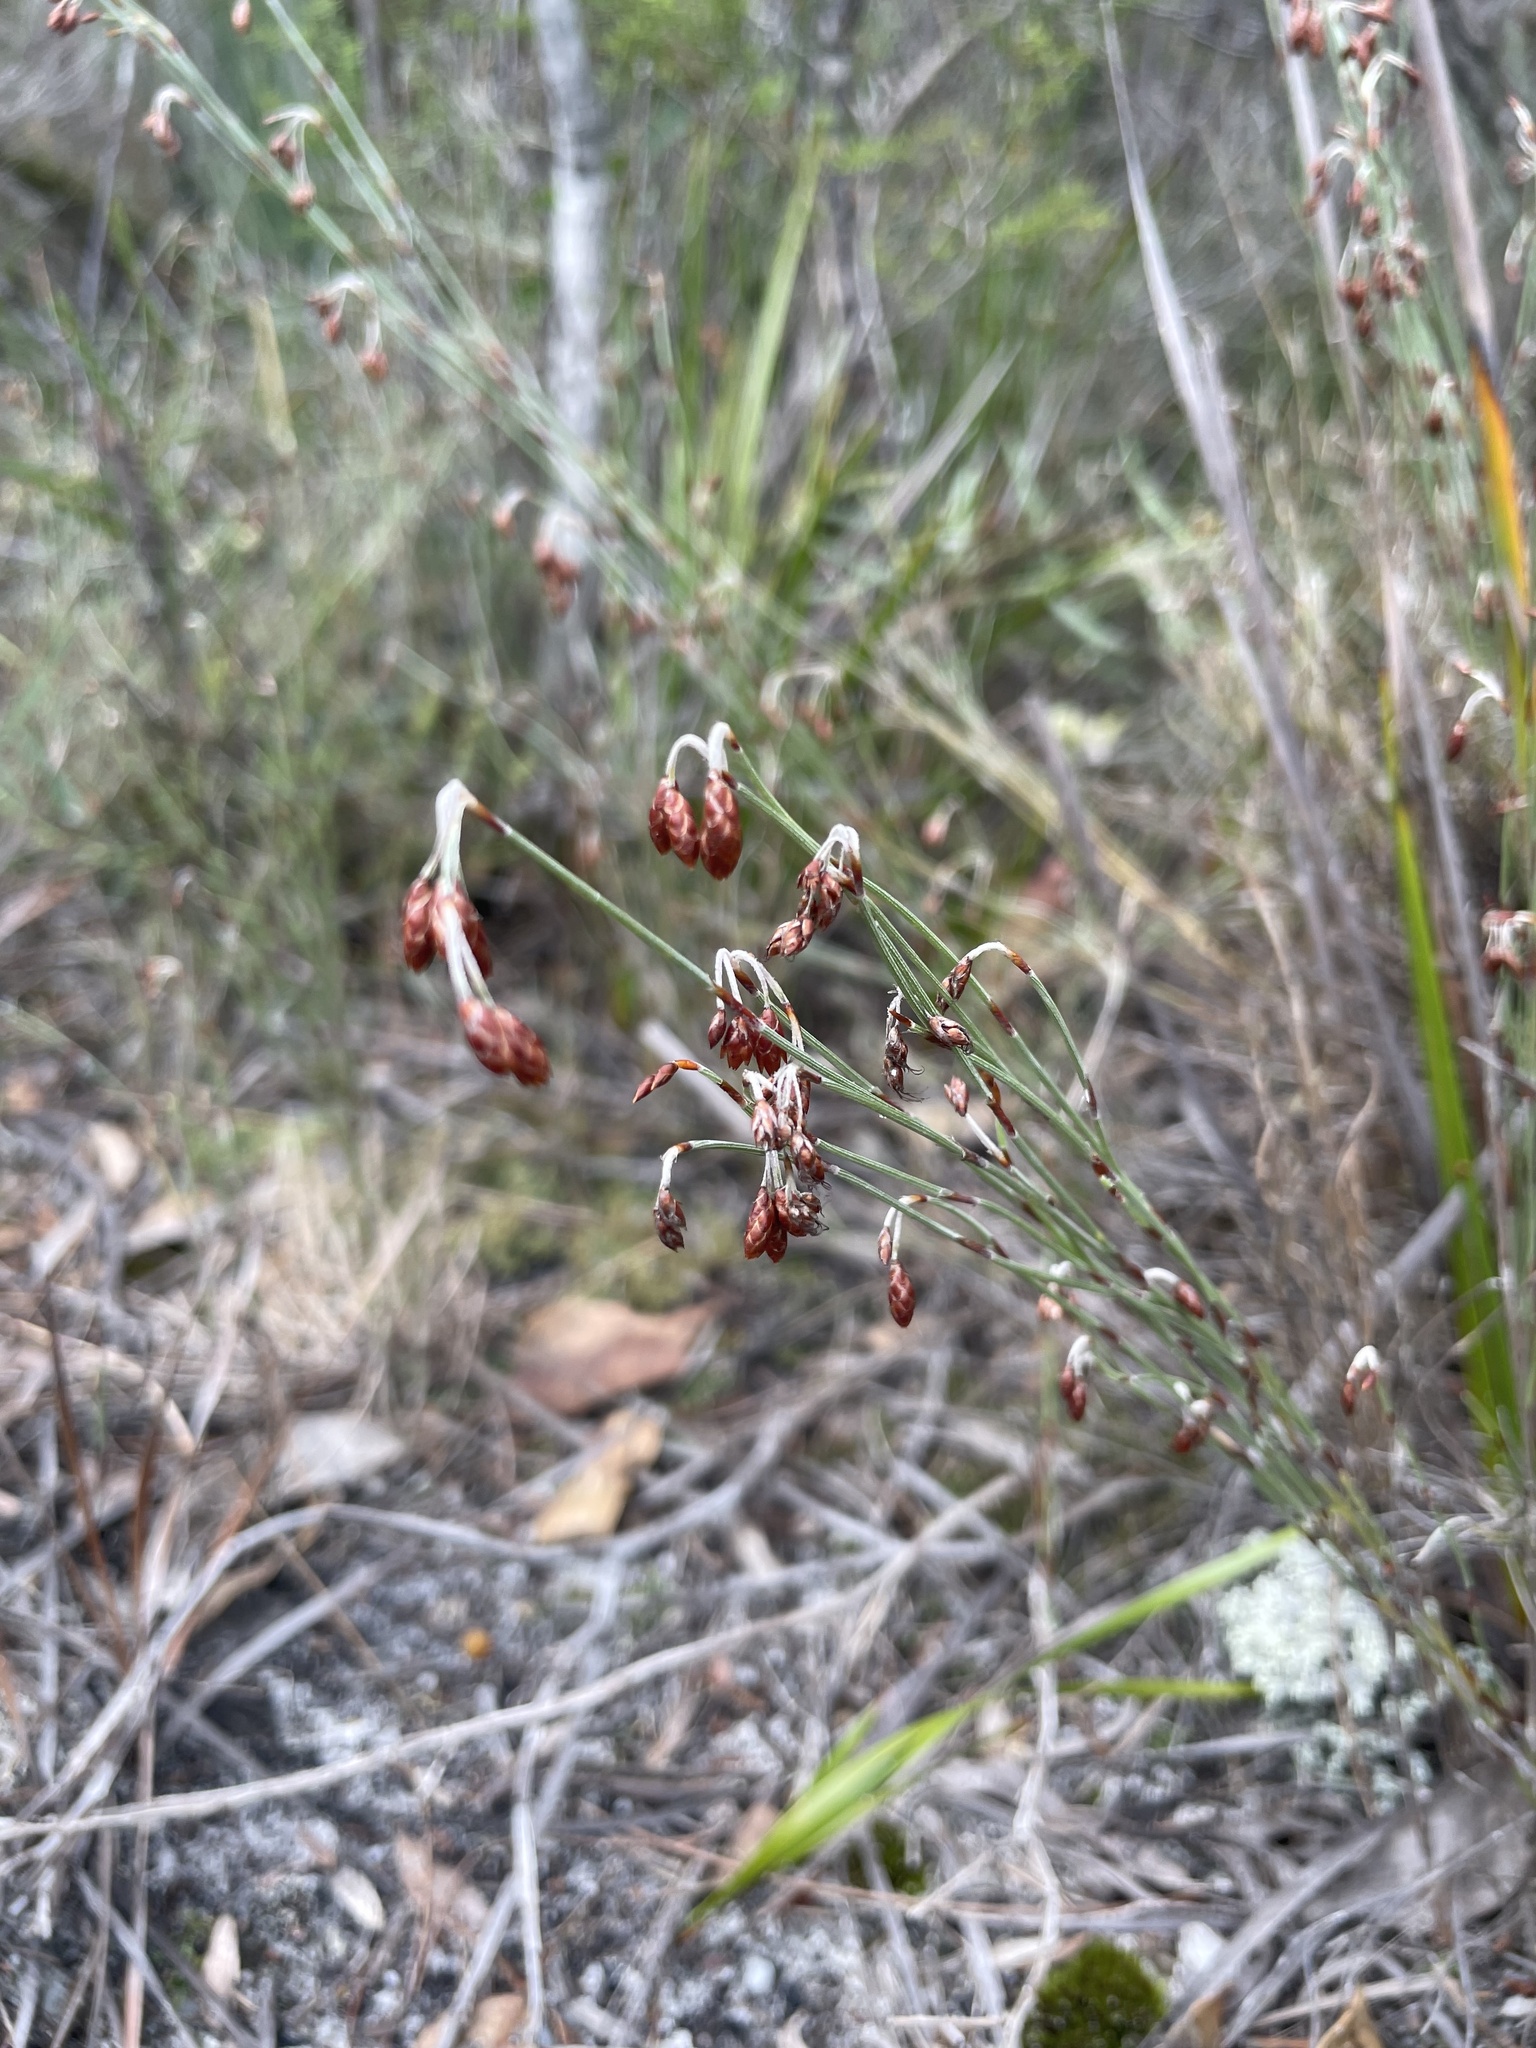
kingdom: Plantae
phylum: Tracheophyta
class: Liliopsida
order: Poales
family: Restionaceae
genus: Hypolaena
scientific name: Hypolaena fastigiata
